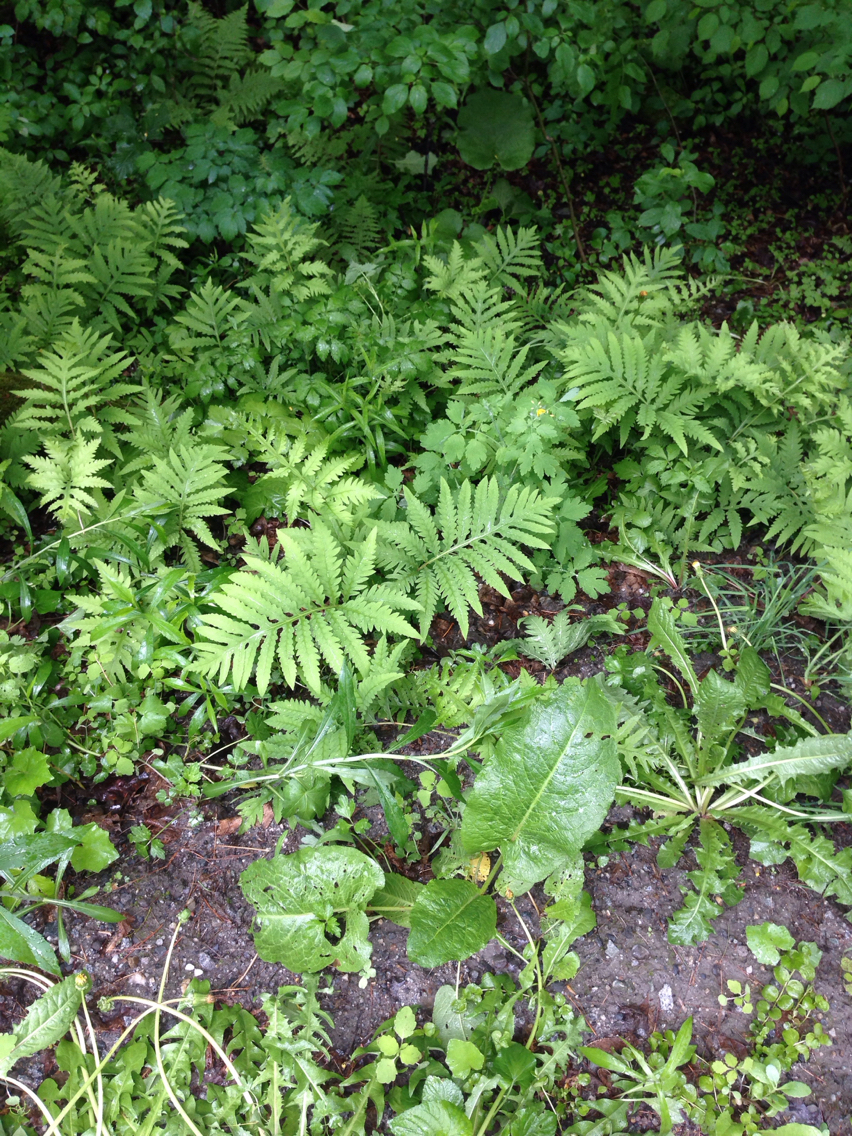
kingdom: Plantae
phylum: Tracheophyta
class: Polypodiopsida
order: Polypodiales
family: Onocleaceae
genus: Onoclea
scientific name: Onoclea sensibilis
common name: Sensitive fern
